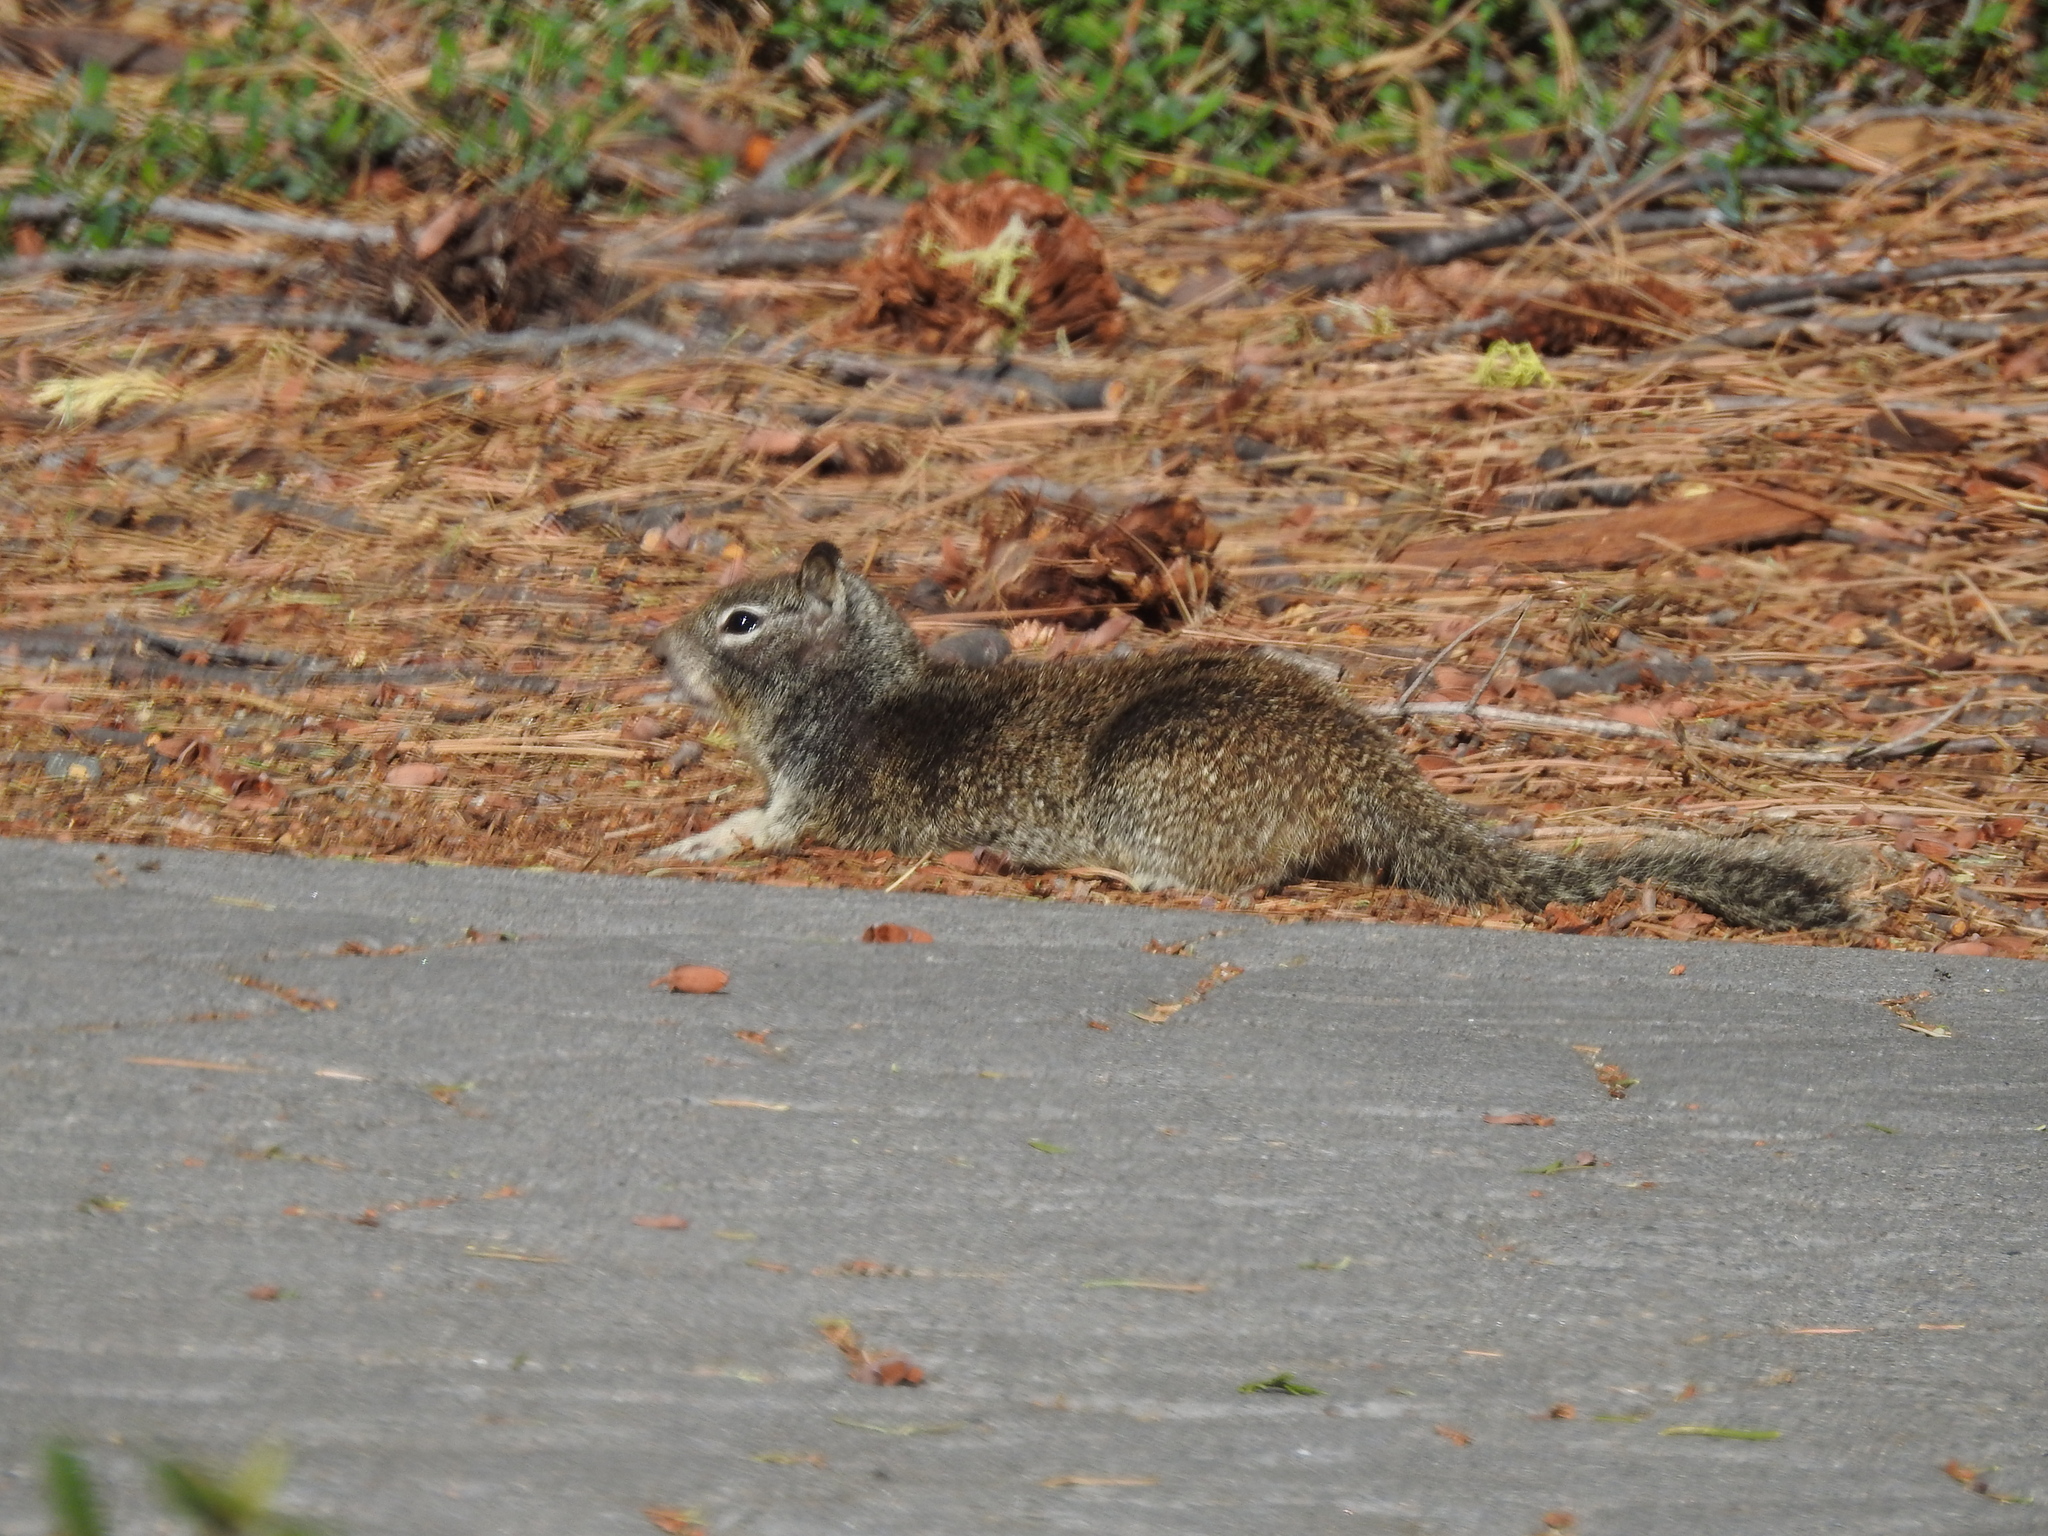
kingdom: Animalia
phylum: Chordata
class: Mammalia
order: Rodentia
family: Sciuridae
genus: Otospermophilus
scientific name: Otospermophilus beecheyi
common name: California ground squirrel
